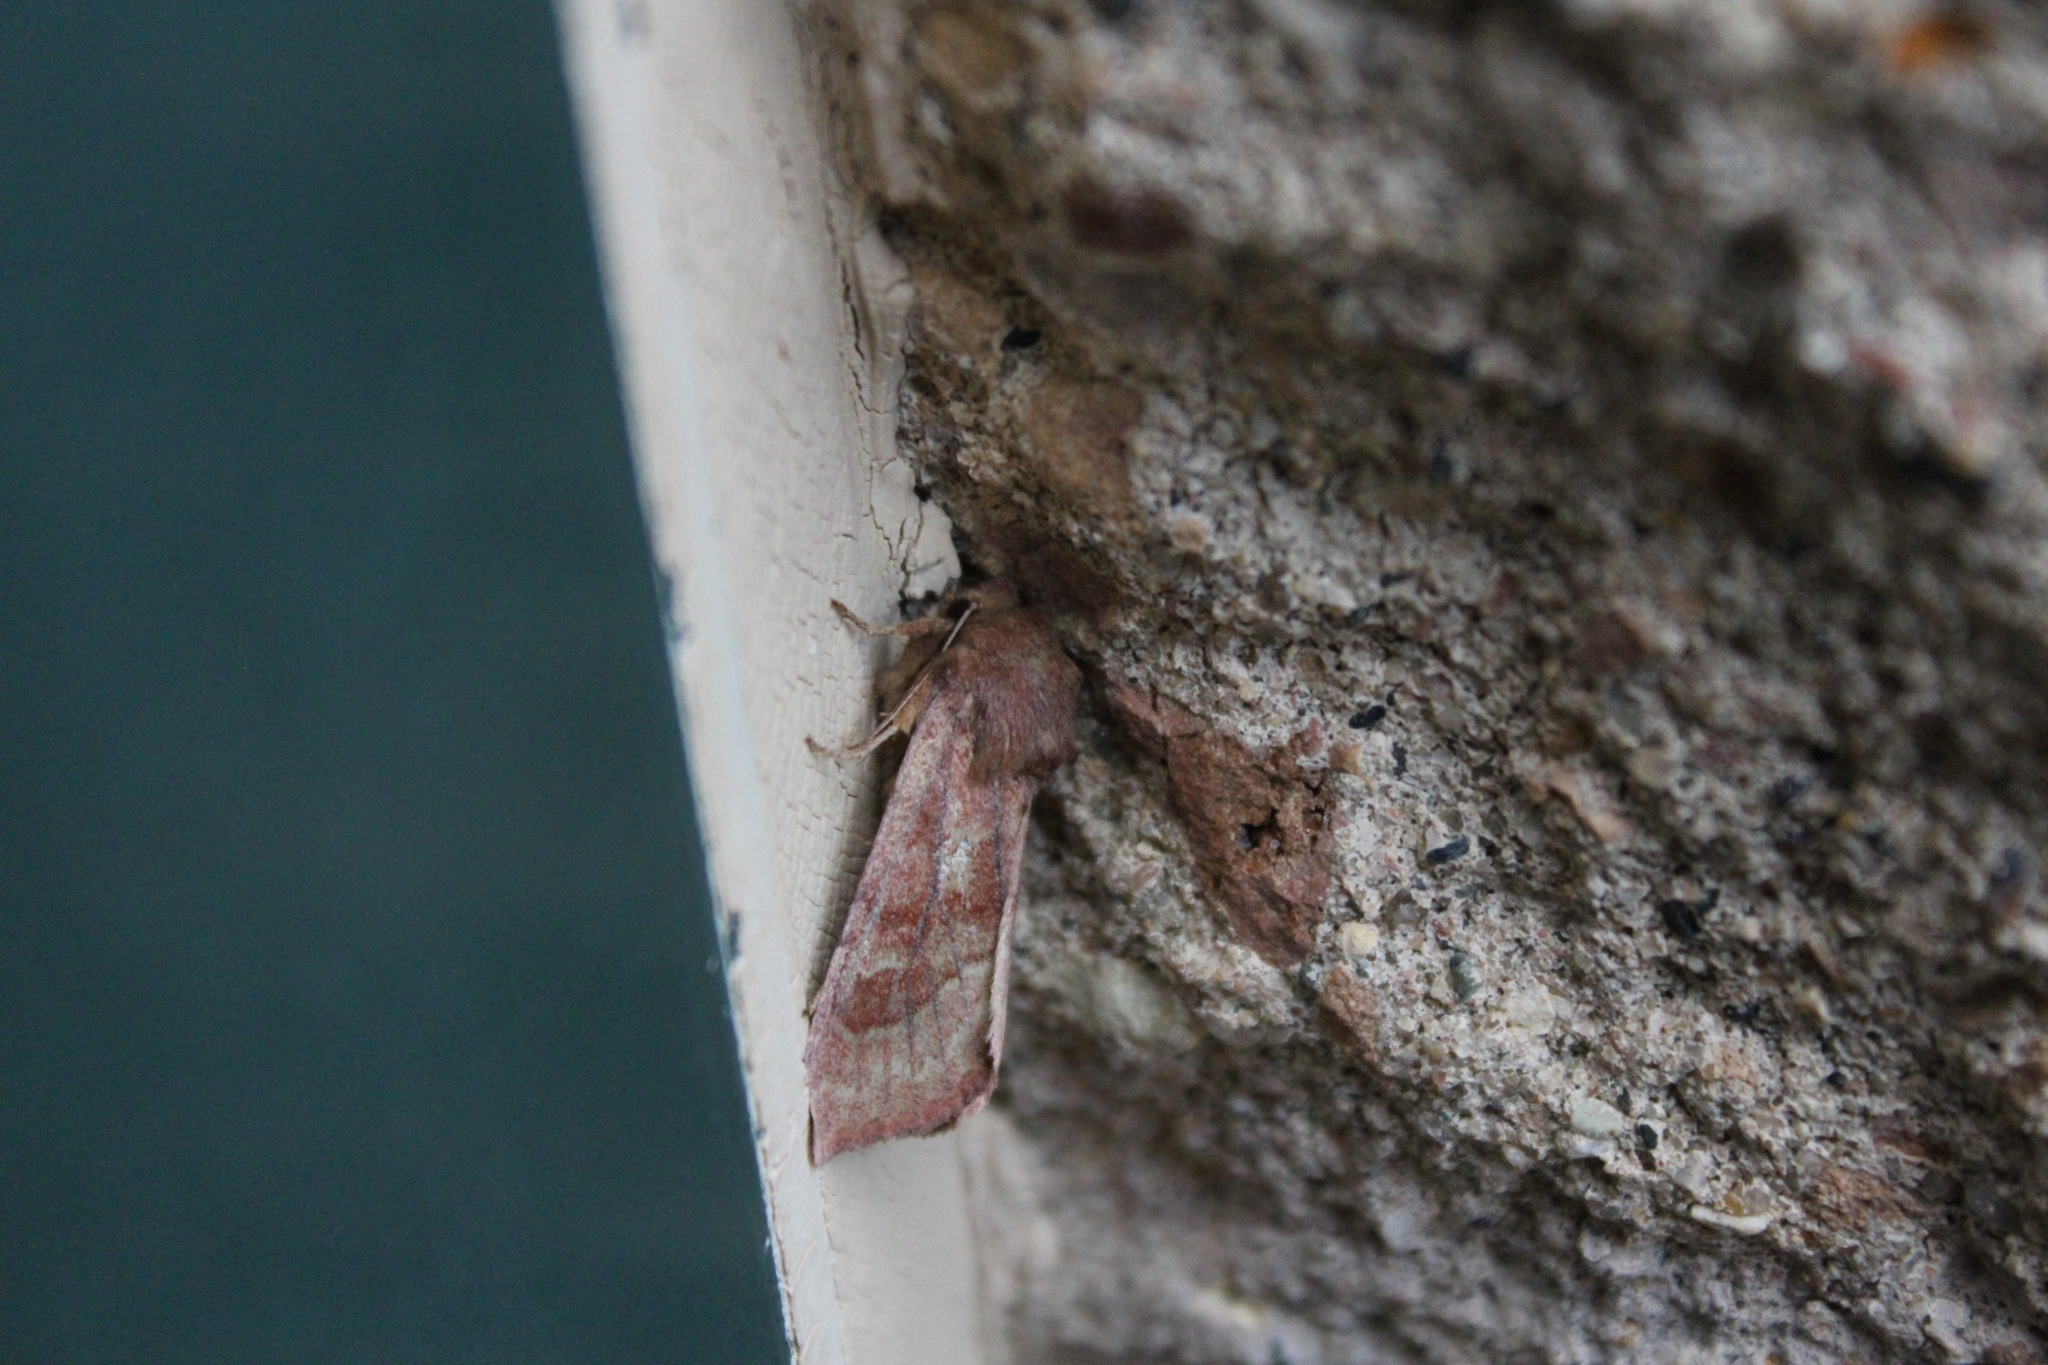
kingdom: Animalia
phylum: Arthropoda
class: Insecta
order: Lepidoptera
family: Noctuidae
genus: Nephelodes
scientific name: Nephelodes minians
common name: Bronzed cutworm
